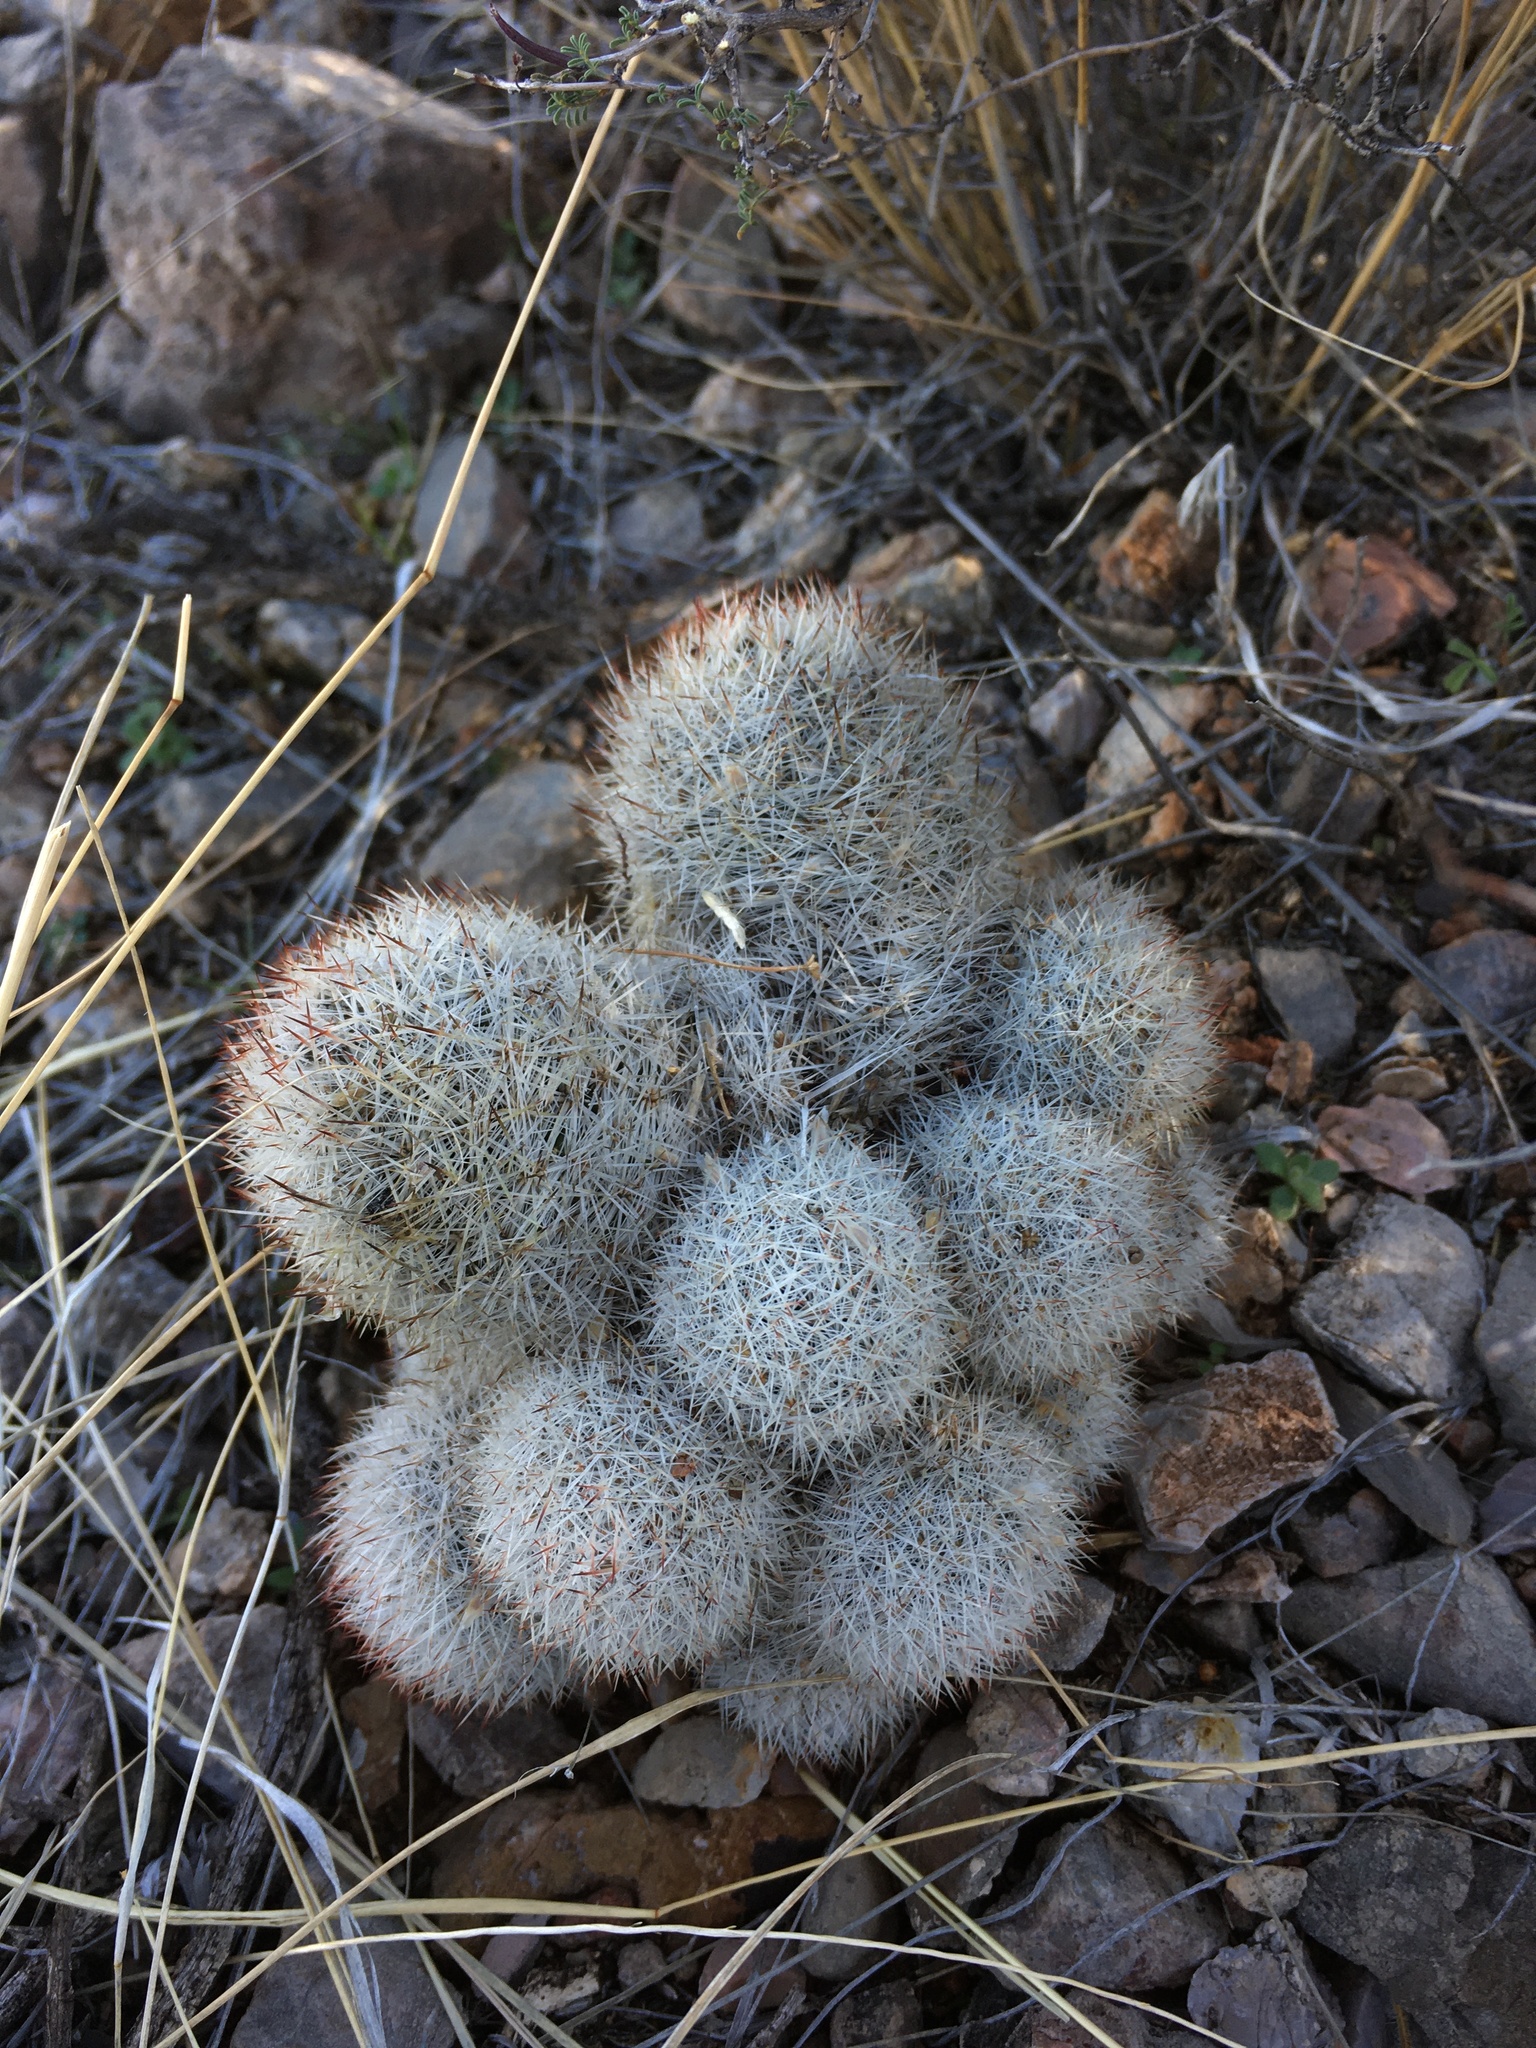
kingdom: Plantae
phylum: Tracheophyta
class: Magnoliopsida
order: Caryophyllales
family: Cactaceae
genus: Pelecyphora
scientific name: Pelecyphora sneedii
